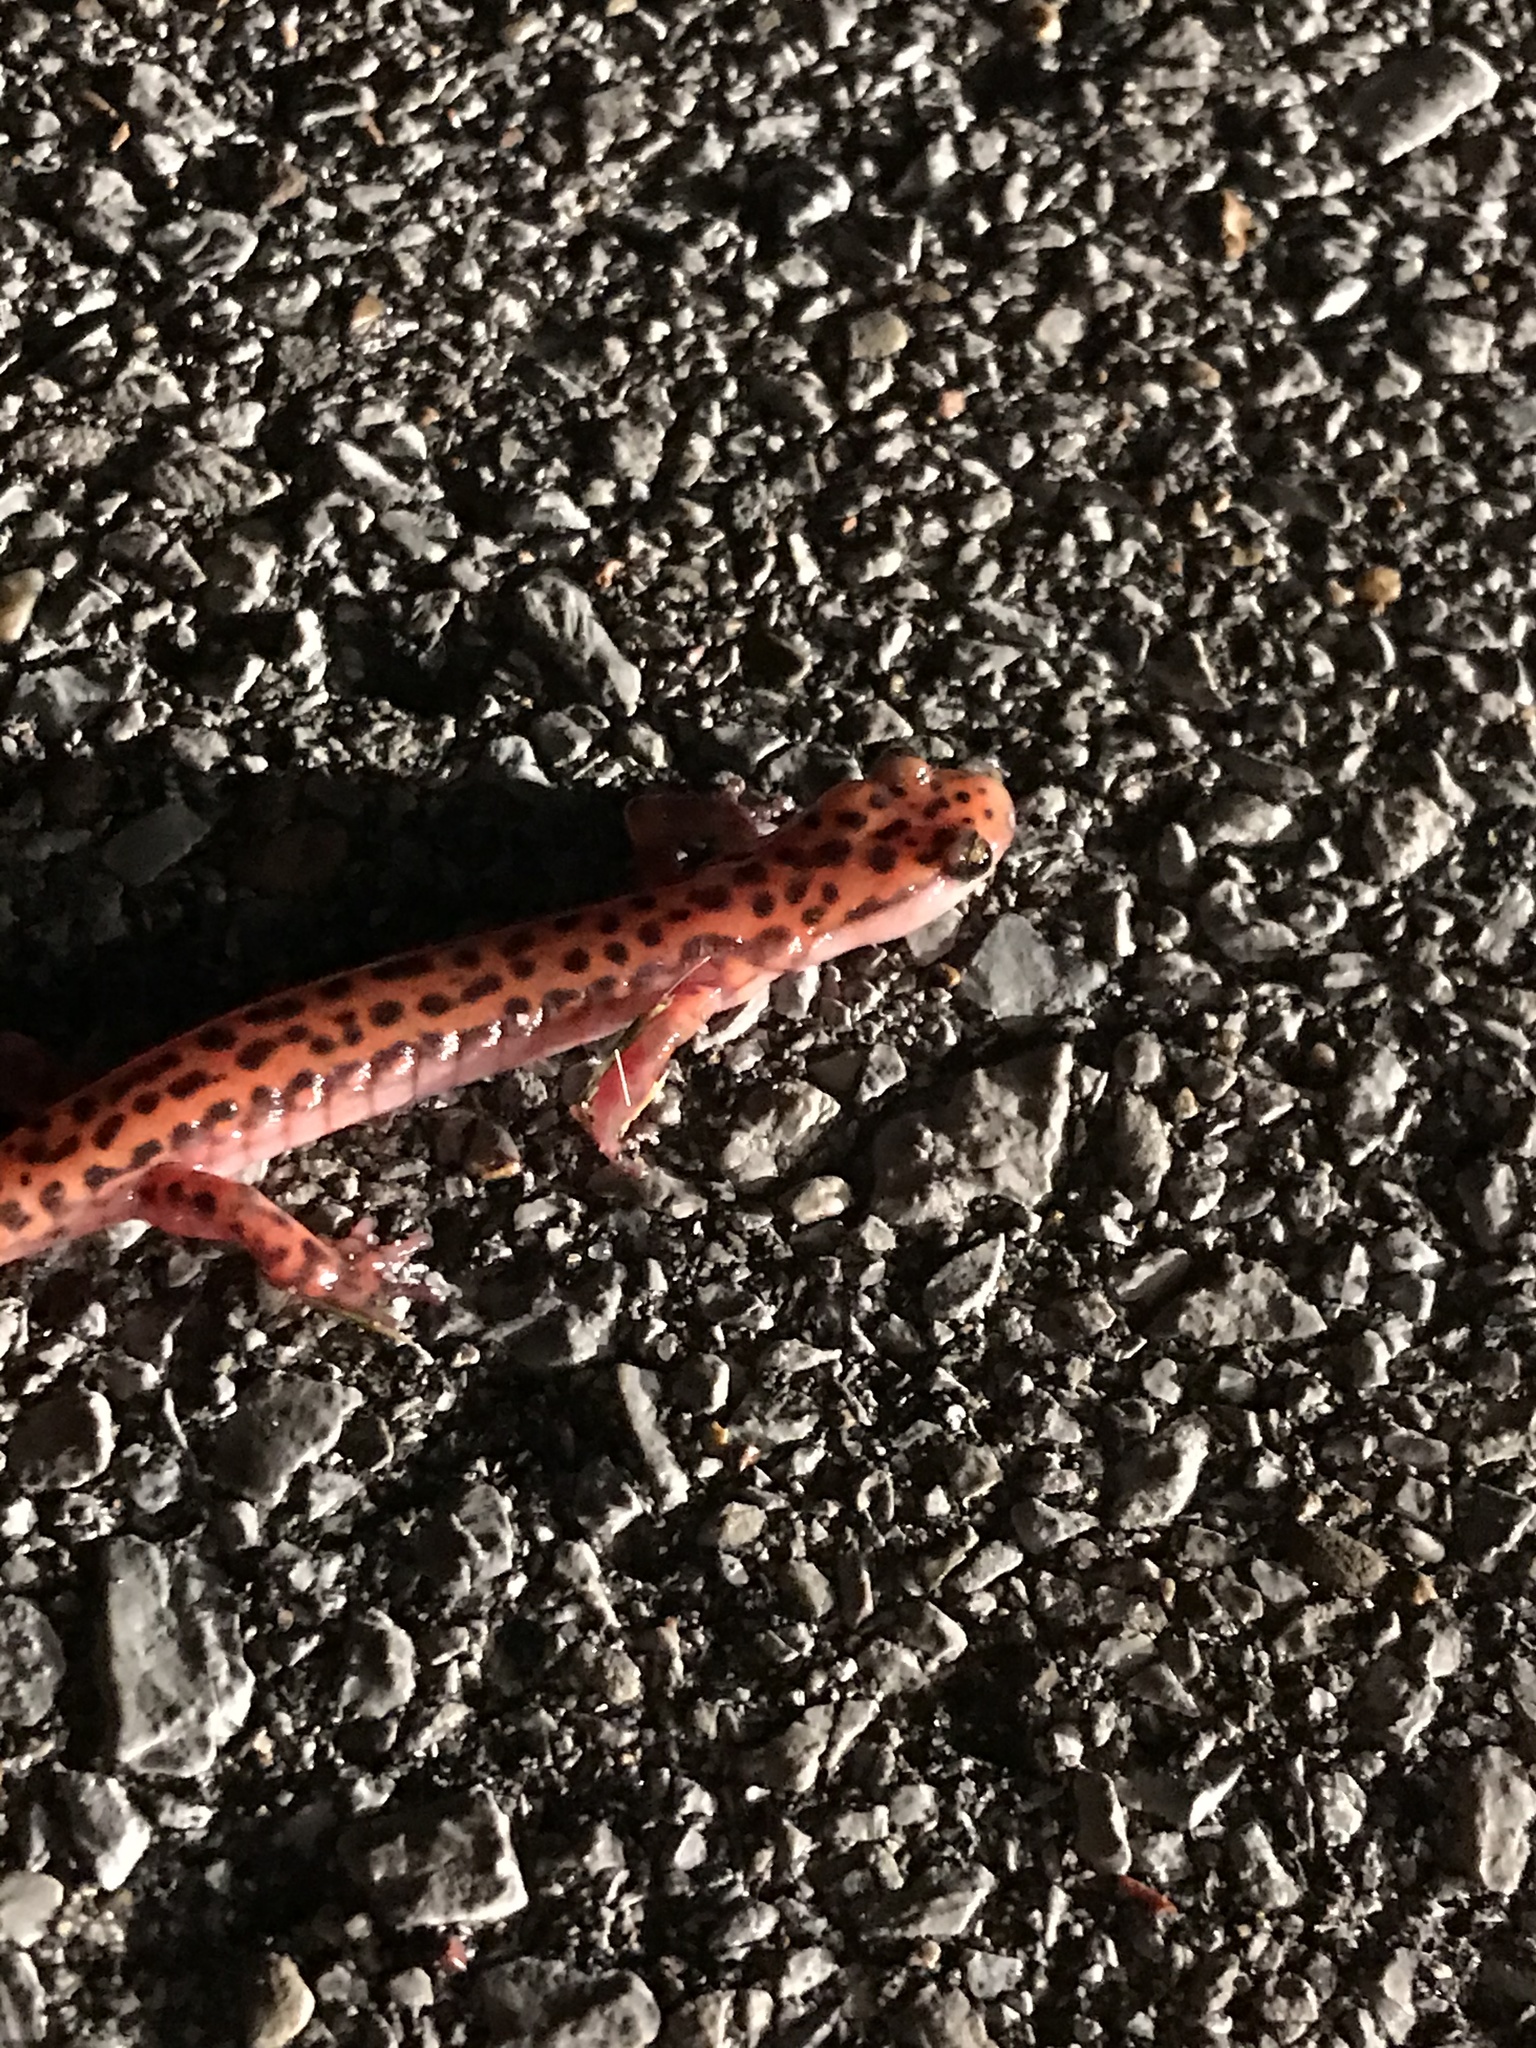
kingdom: Animalia
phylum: Chordata
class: Amphibia
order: Caudata
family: Plethodontidae
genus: Eurycea
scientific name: Eurycea lucifuga
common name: Cave salamander
